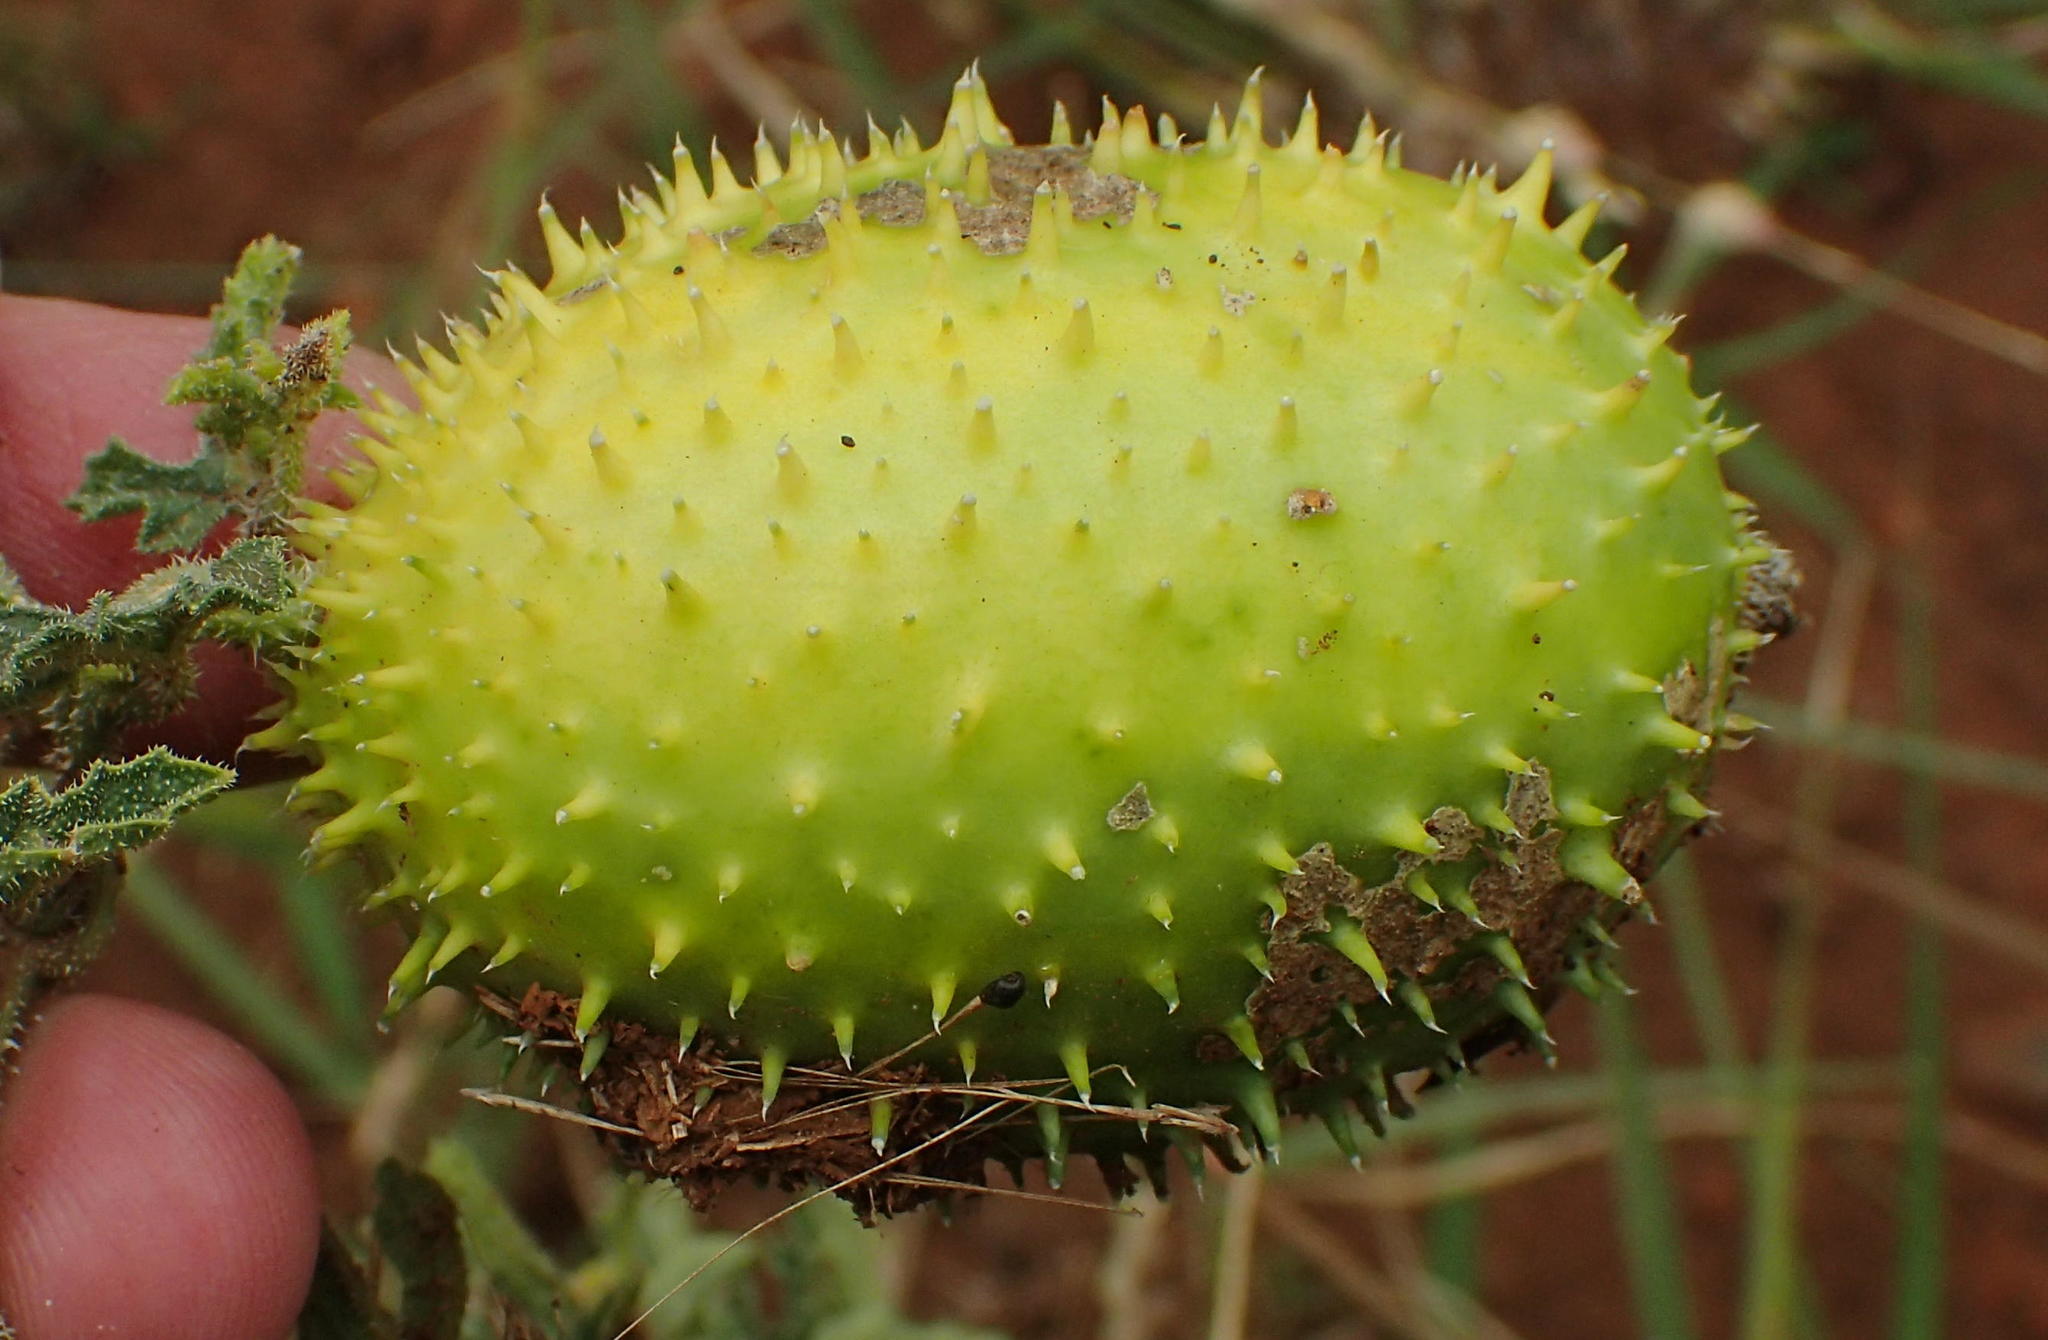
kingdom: Plantae
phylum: Tracheophyta
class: Magnoliopsida
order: Cucurbitales
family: Cucurbitaceae
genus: Cucumis
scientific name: Cucumis zeyheri
